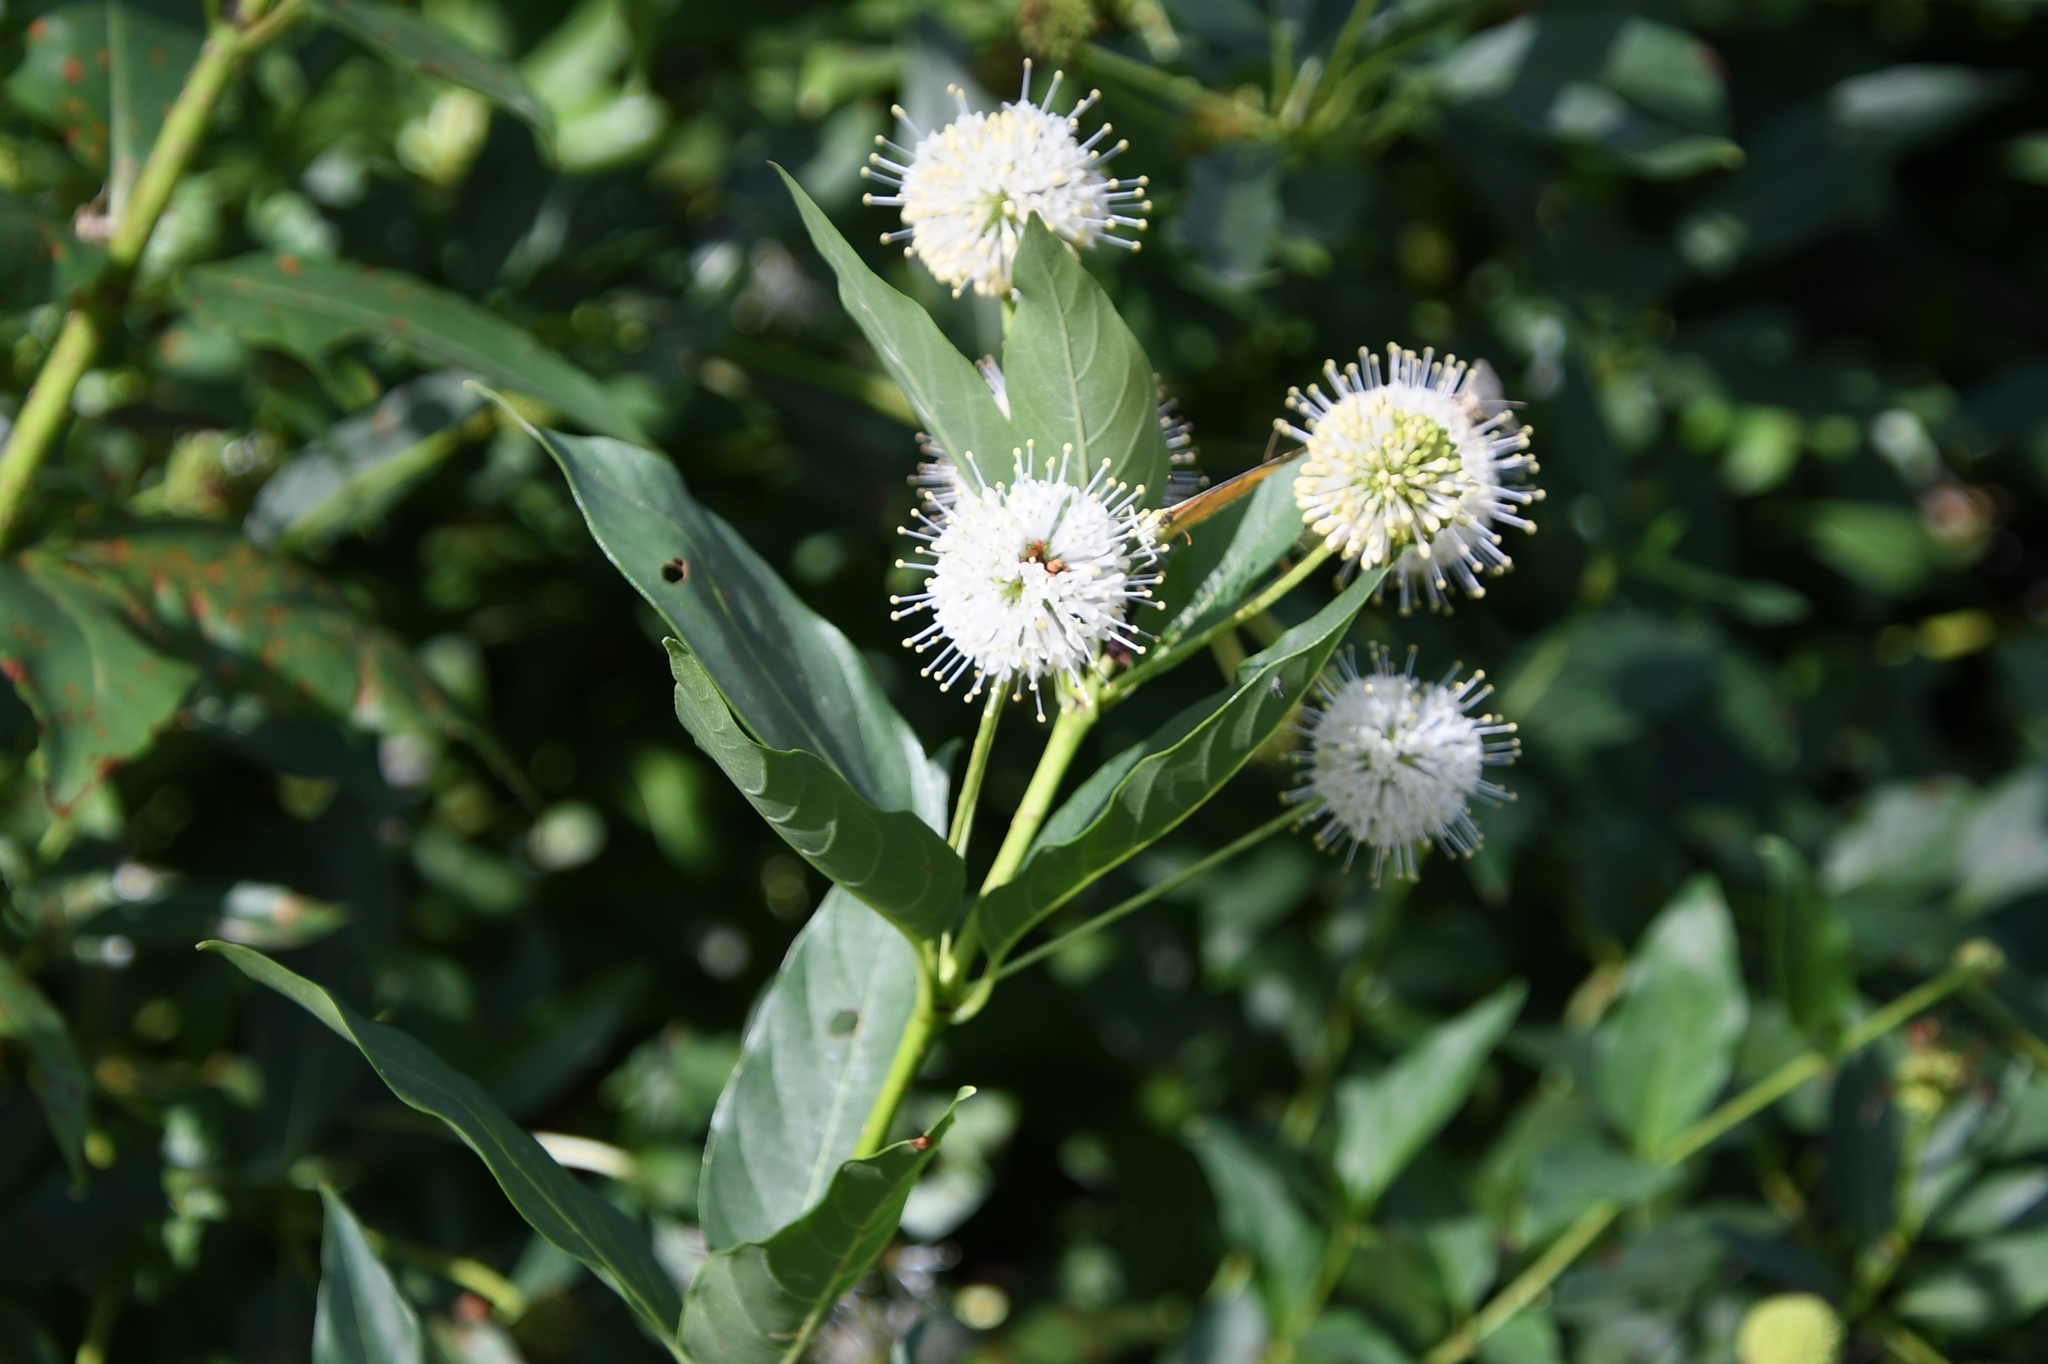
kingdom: Plantae
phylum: Tracheophyta
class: Magnoliopsida
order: Gentianales
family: Rubiaceae
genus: Cephalanthus
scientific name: Cephalanthus occidentalis
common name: Button-willow
